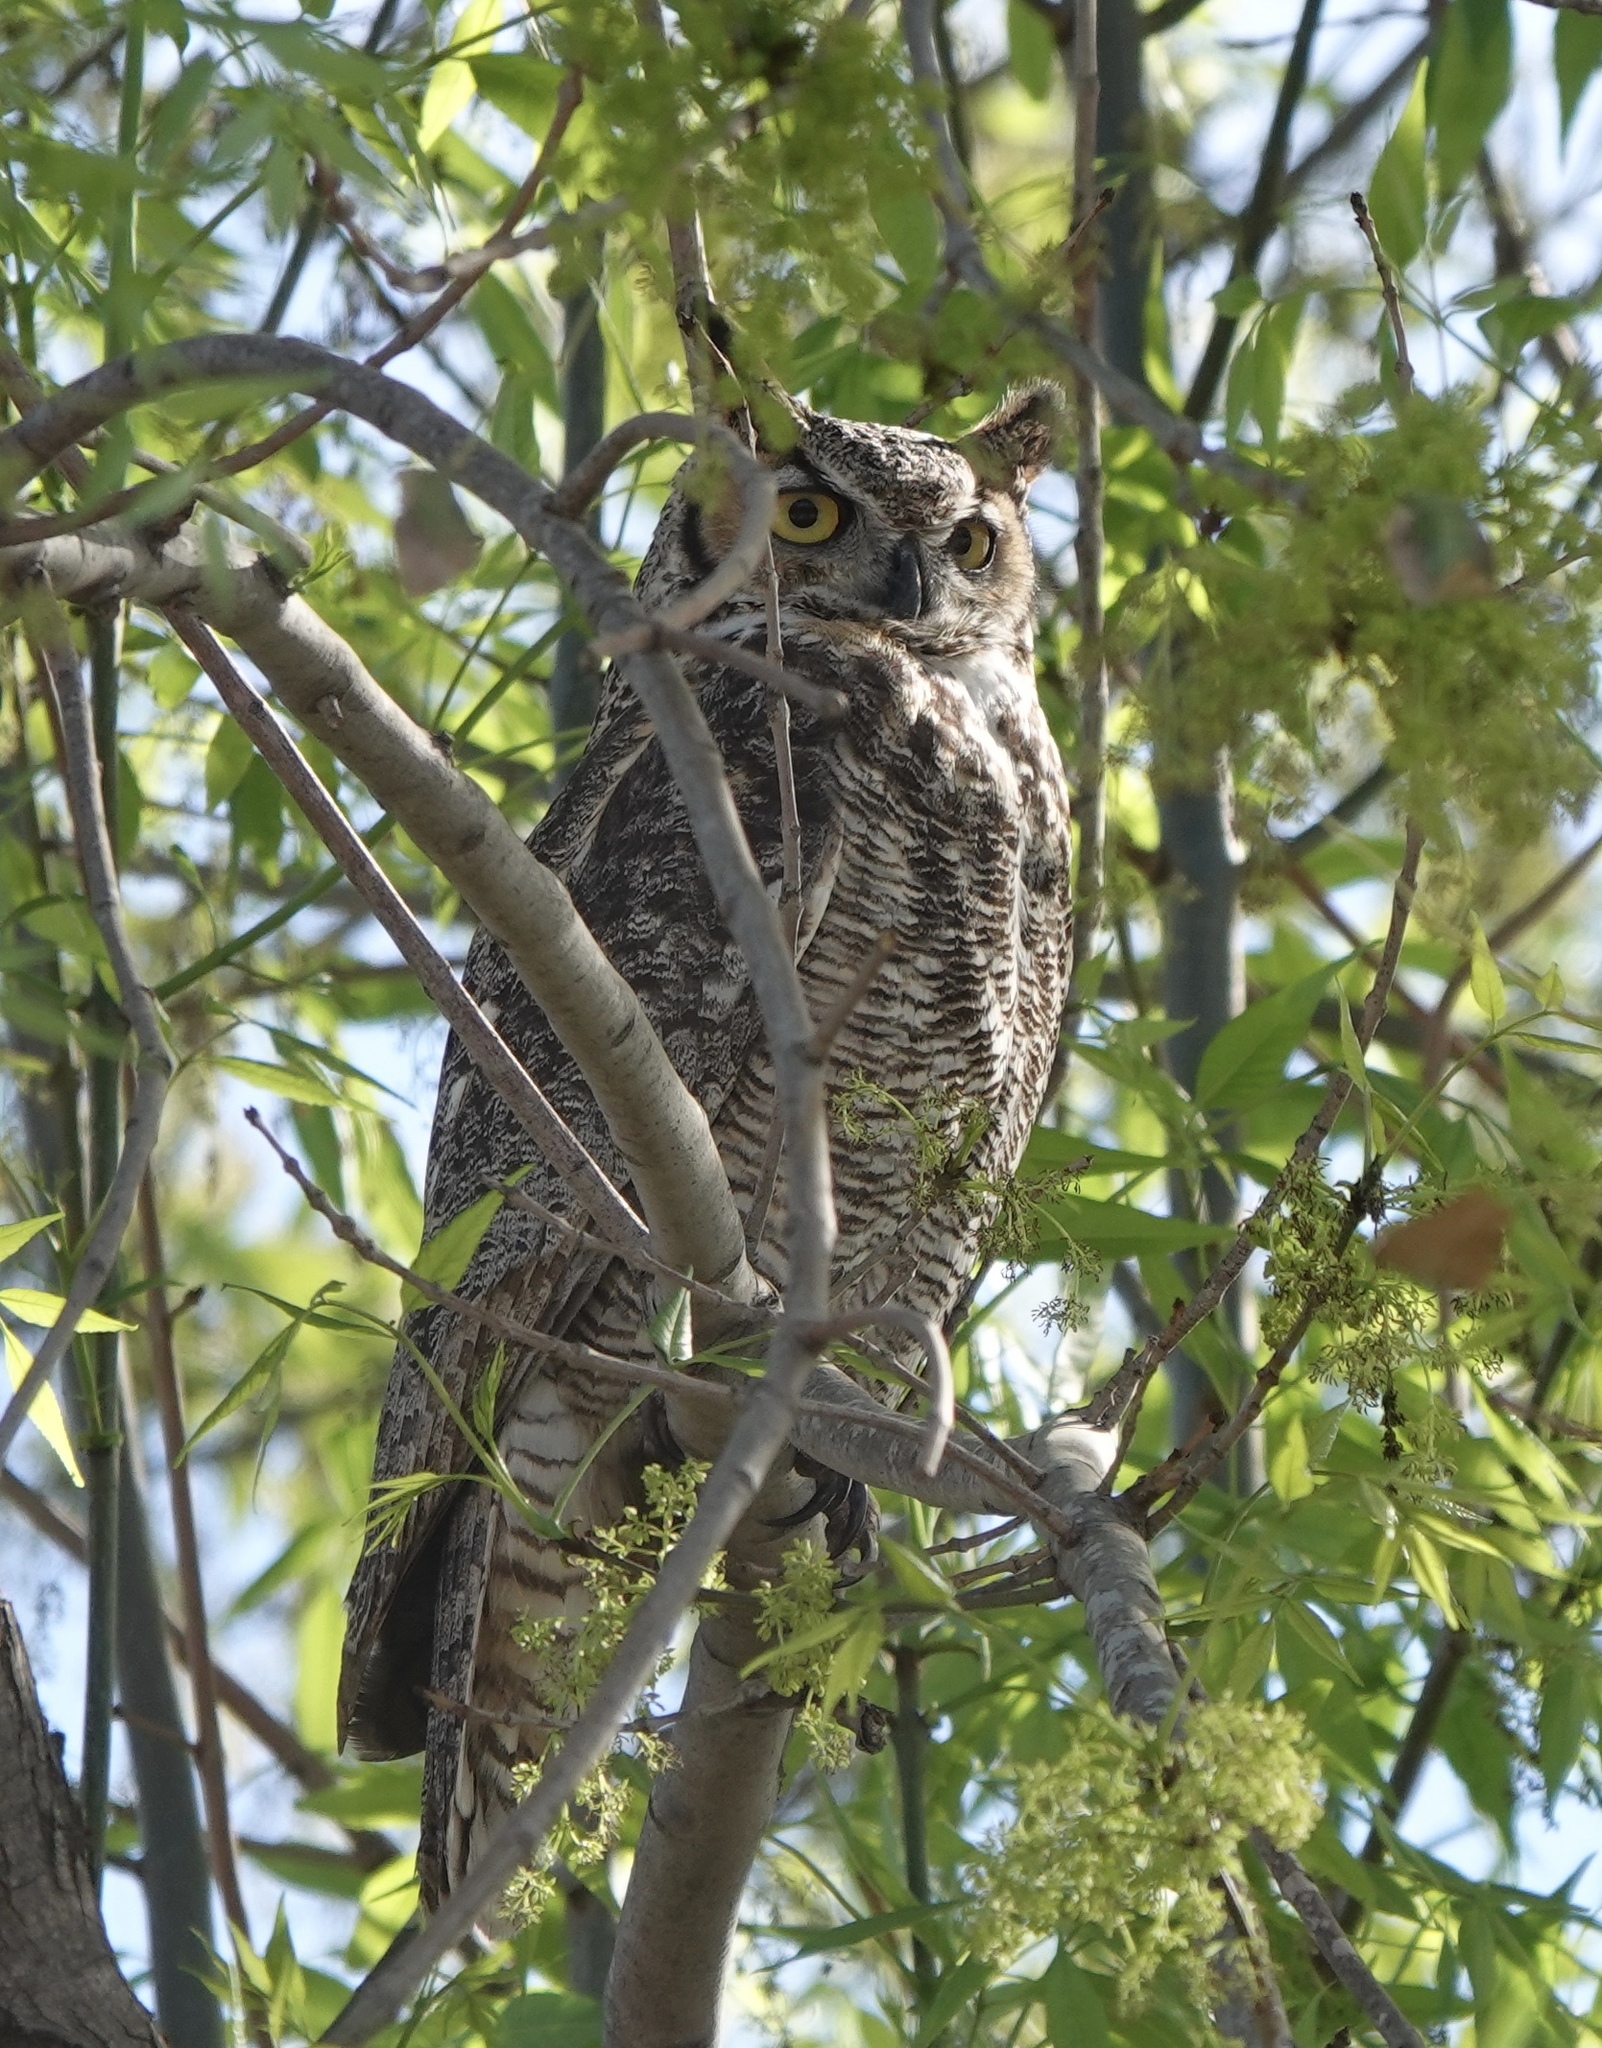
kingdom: Animalia
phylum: Chordata
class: Aves
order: Strigiformes
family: Strigidae
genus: Bubo
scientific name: Bubo virginianus
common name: Great horned owl
